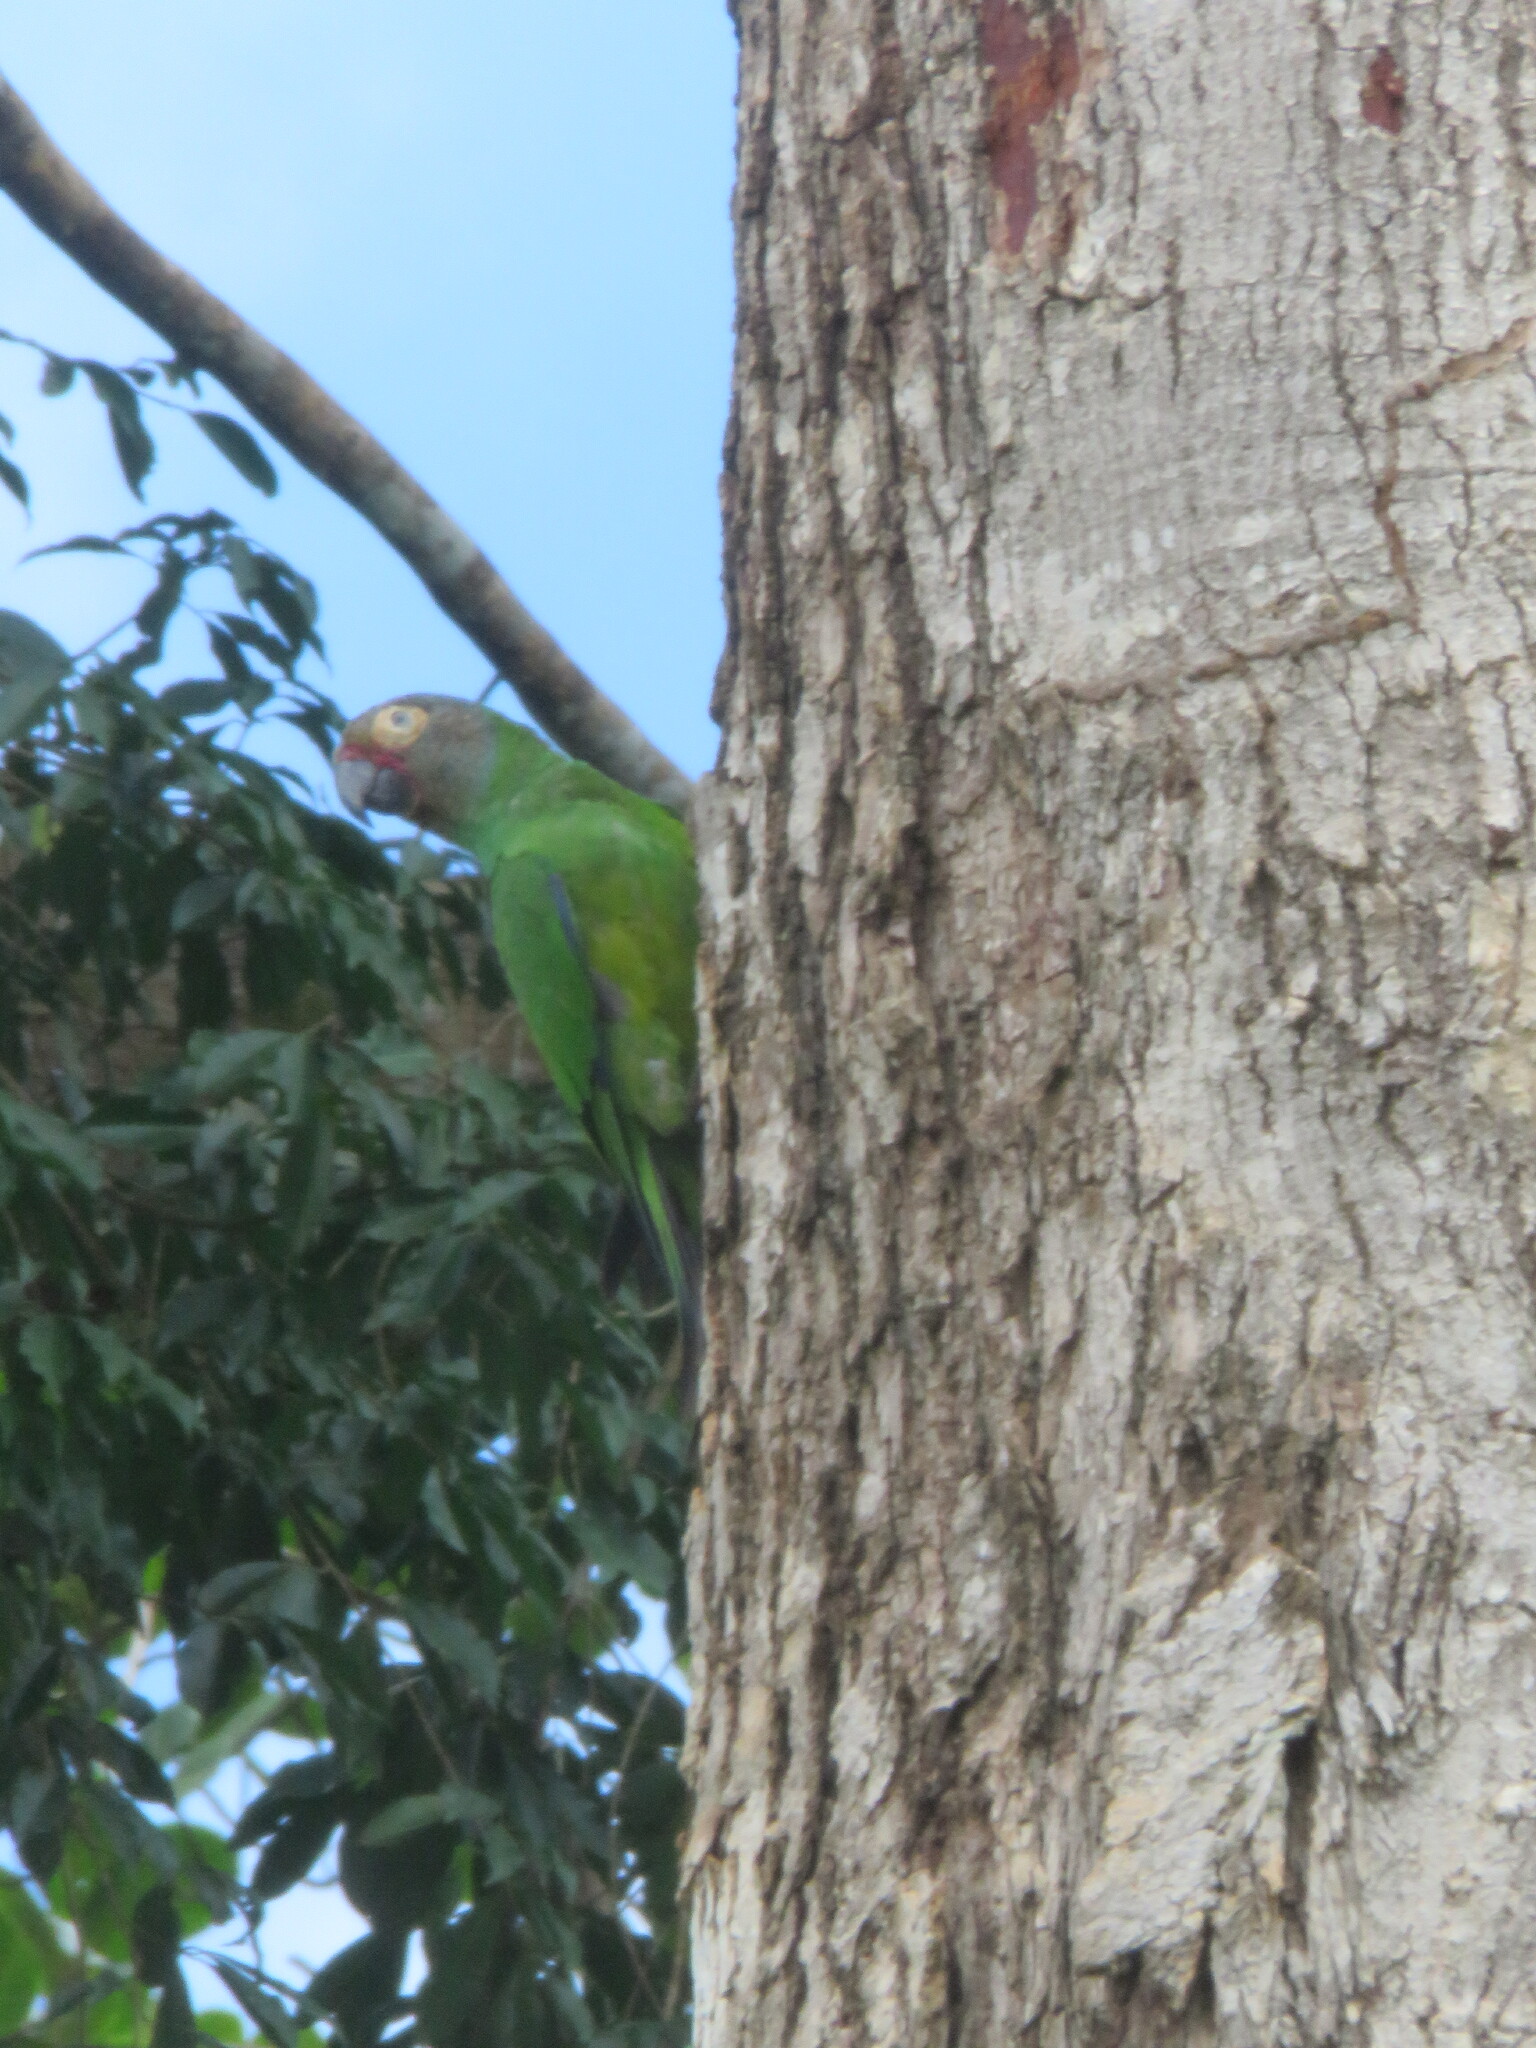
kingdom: Animalia
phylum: Chordata
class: Aves
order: Psittaciformes
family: Psittacidae
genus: Aratinga
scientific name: Aratinga weddellii
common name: Dusky-headed parakeet
